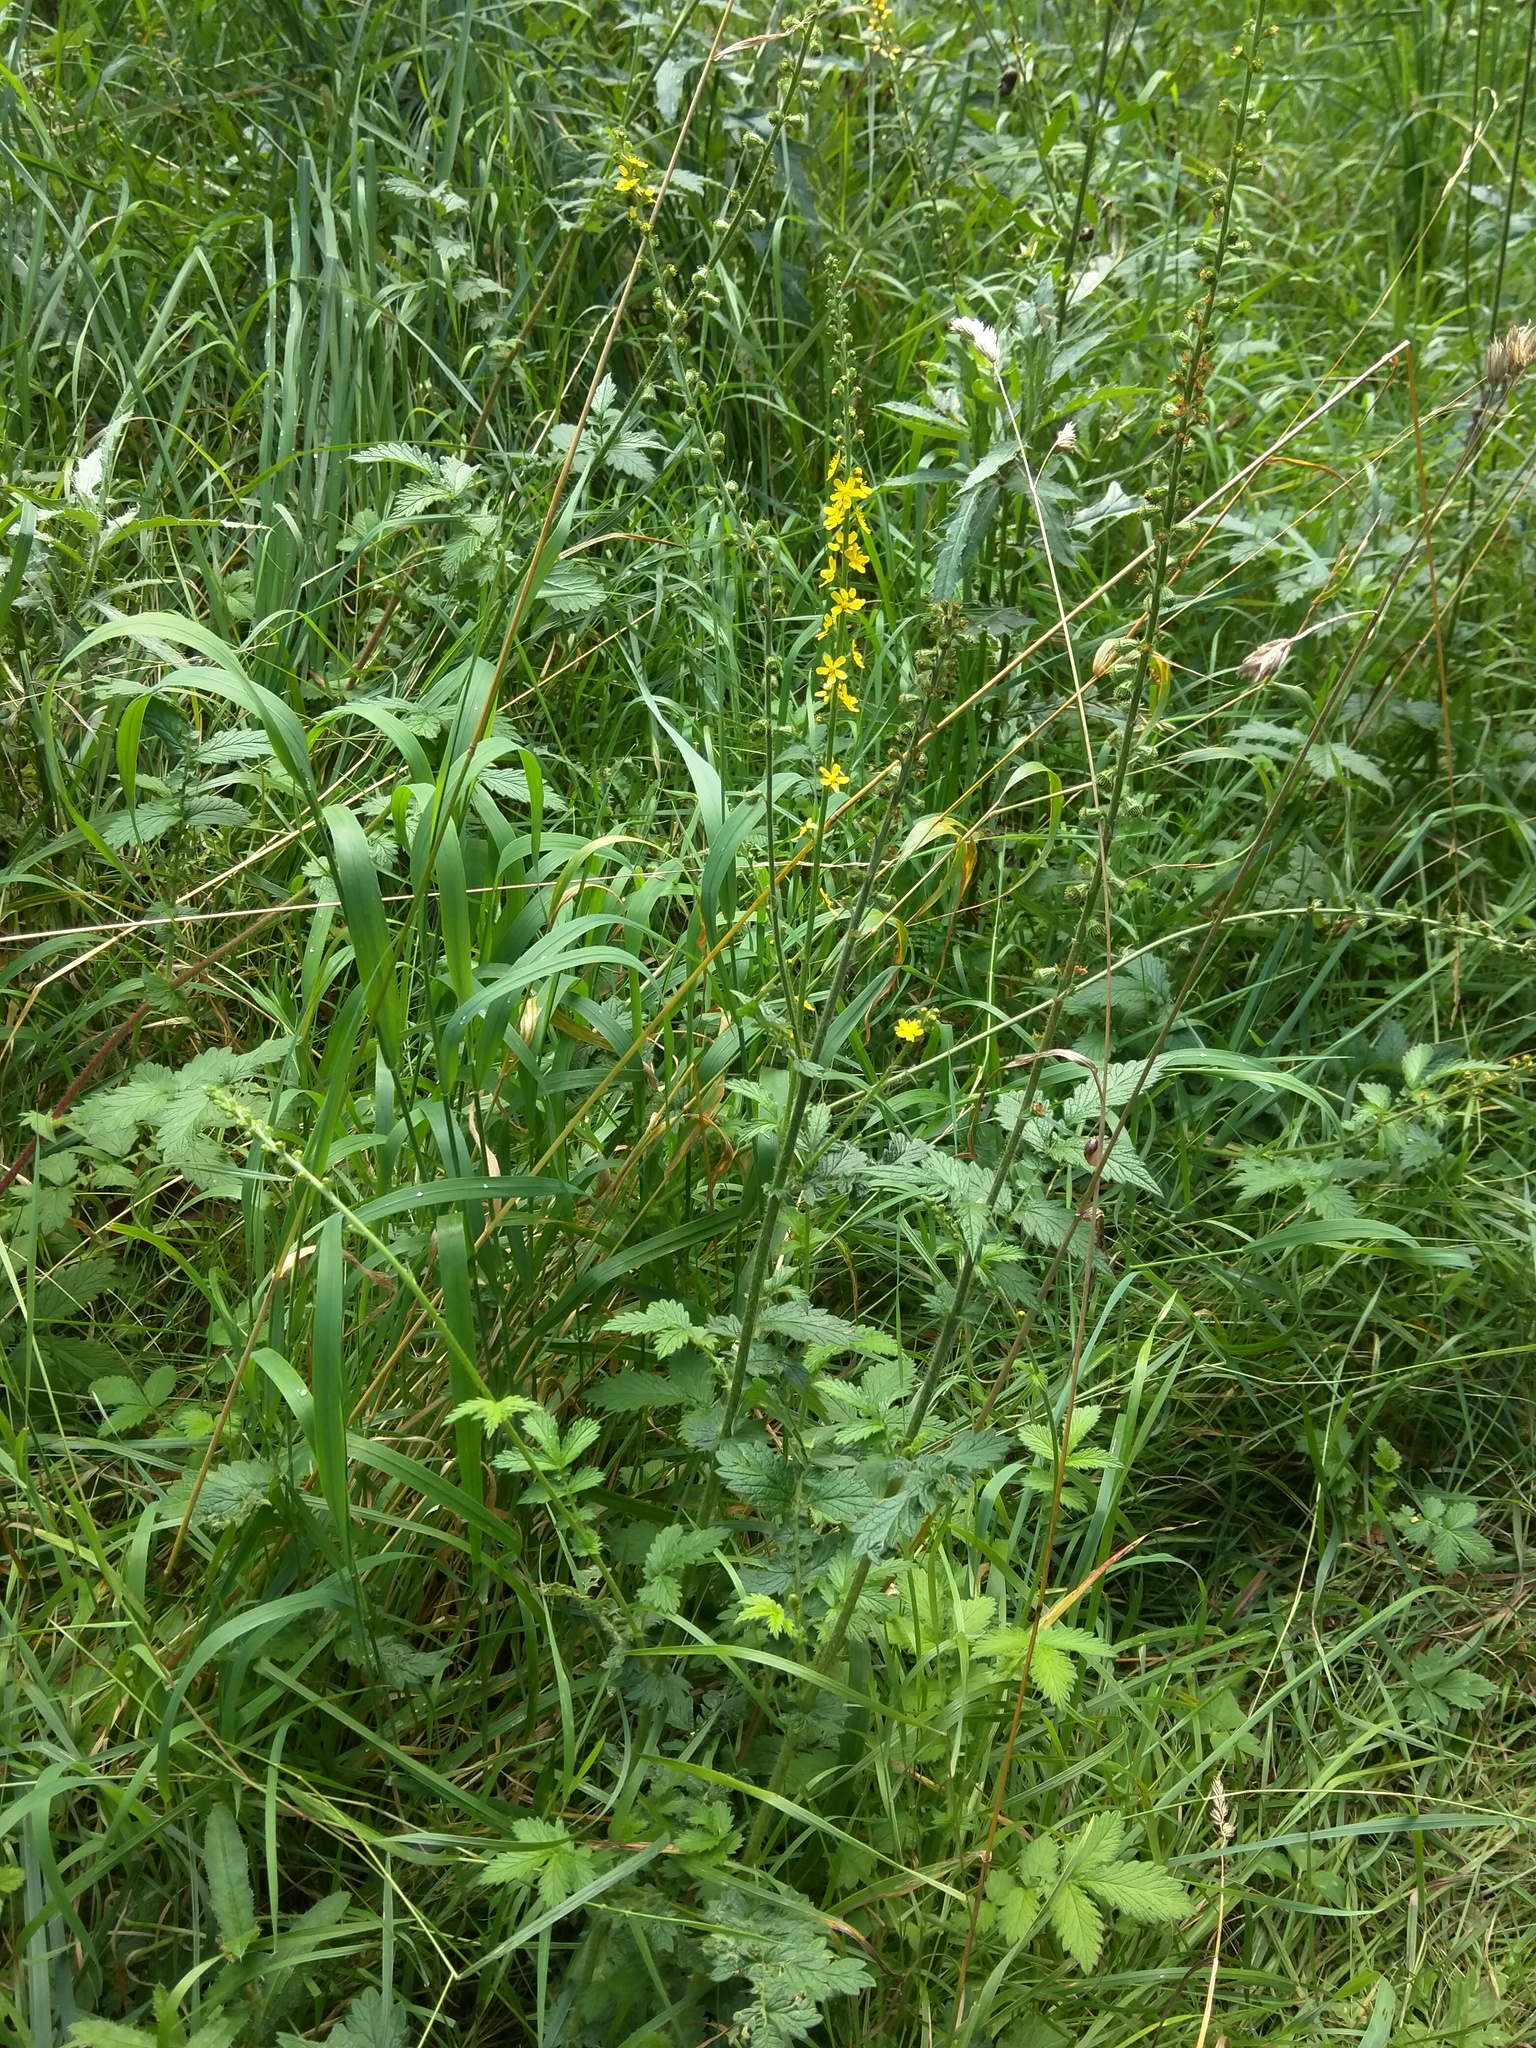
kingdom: Plantae
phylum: Tracheophyta
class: Magnoliopsida
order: Rosales
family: Rosaceae
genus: Agrimonia
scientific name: Agrimonia eupatoria
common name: Agrimony
